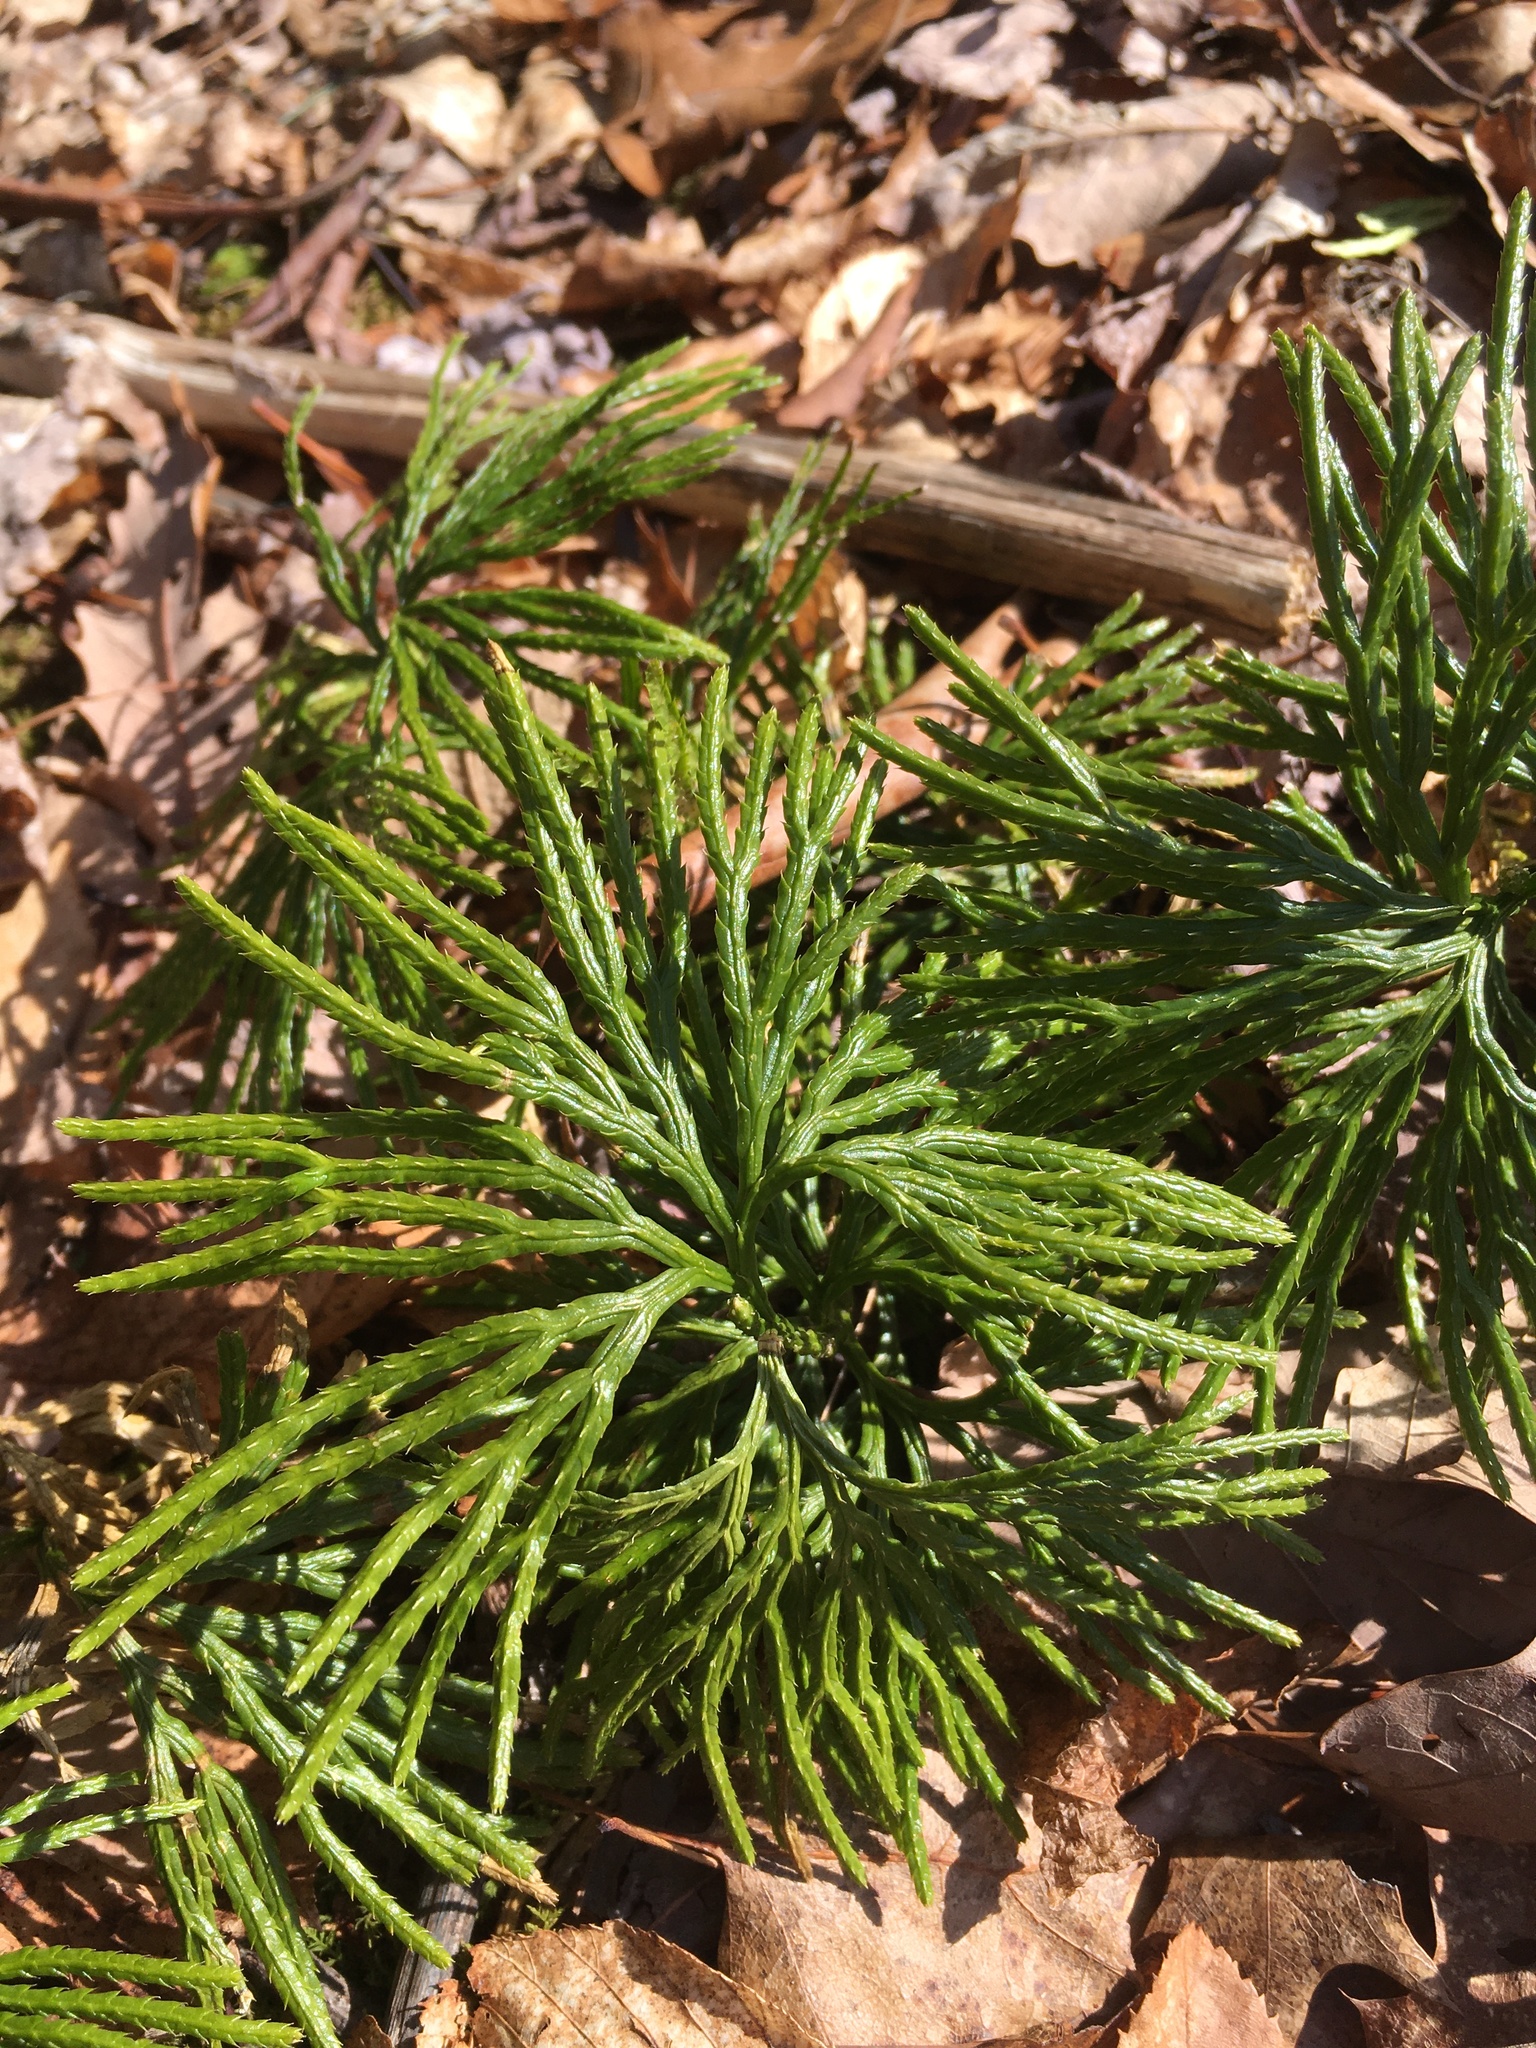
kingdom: Plantae
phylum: Tracheophyta
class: Lycopodiopsida
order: Lycopodiales
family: Lycopodiaceae
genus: Diphasiastrum
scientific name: Diphasiastrum digitatum
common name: Southern running-pine
